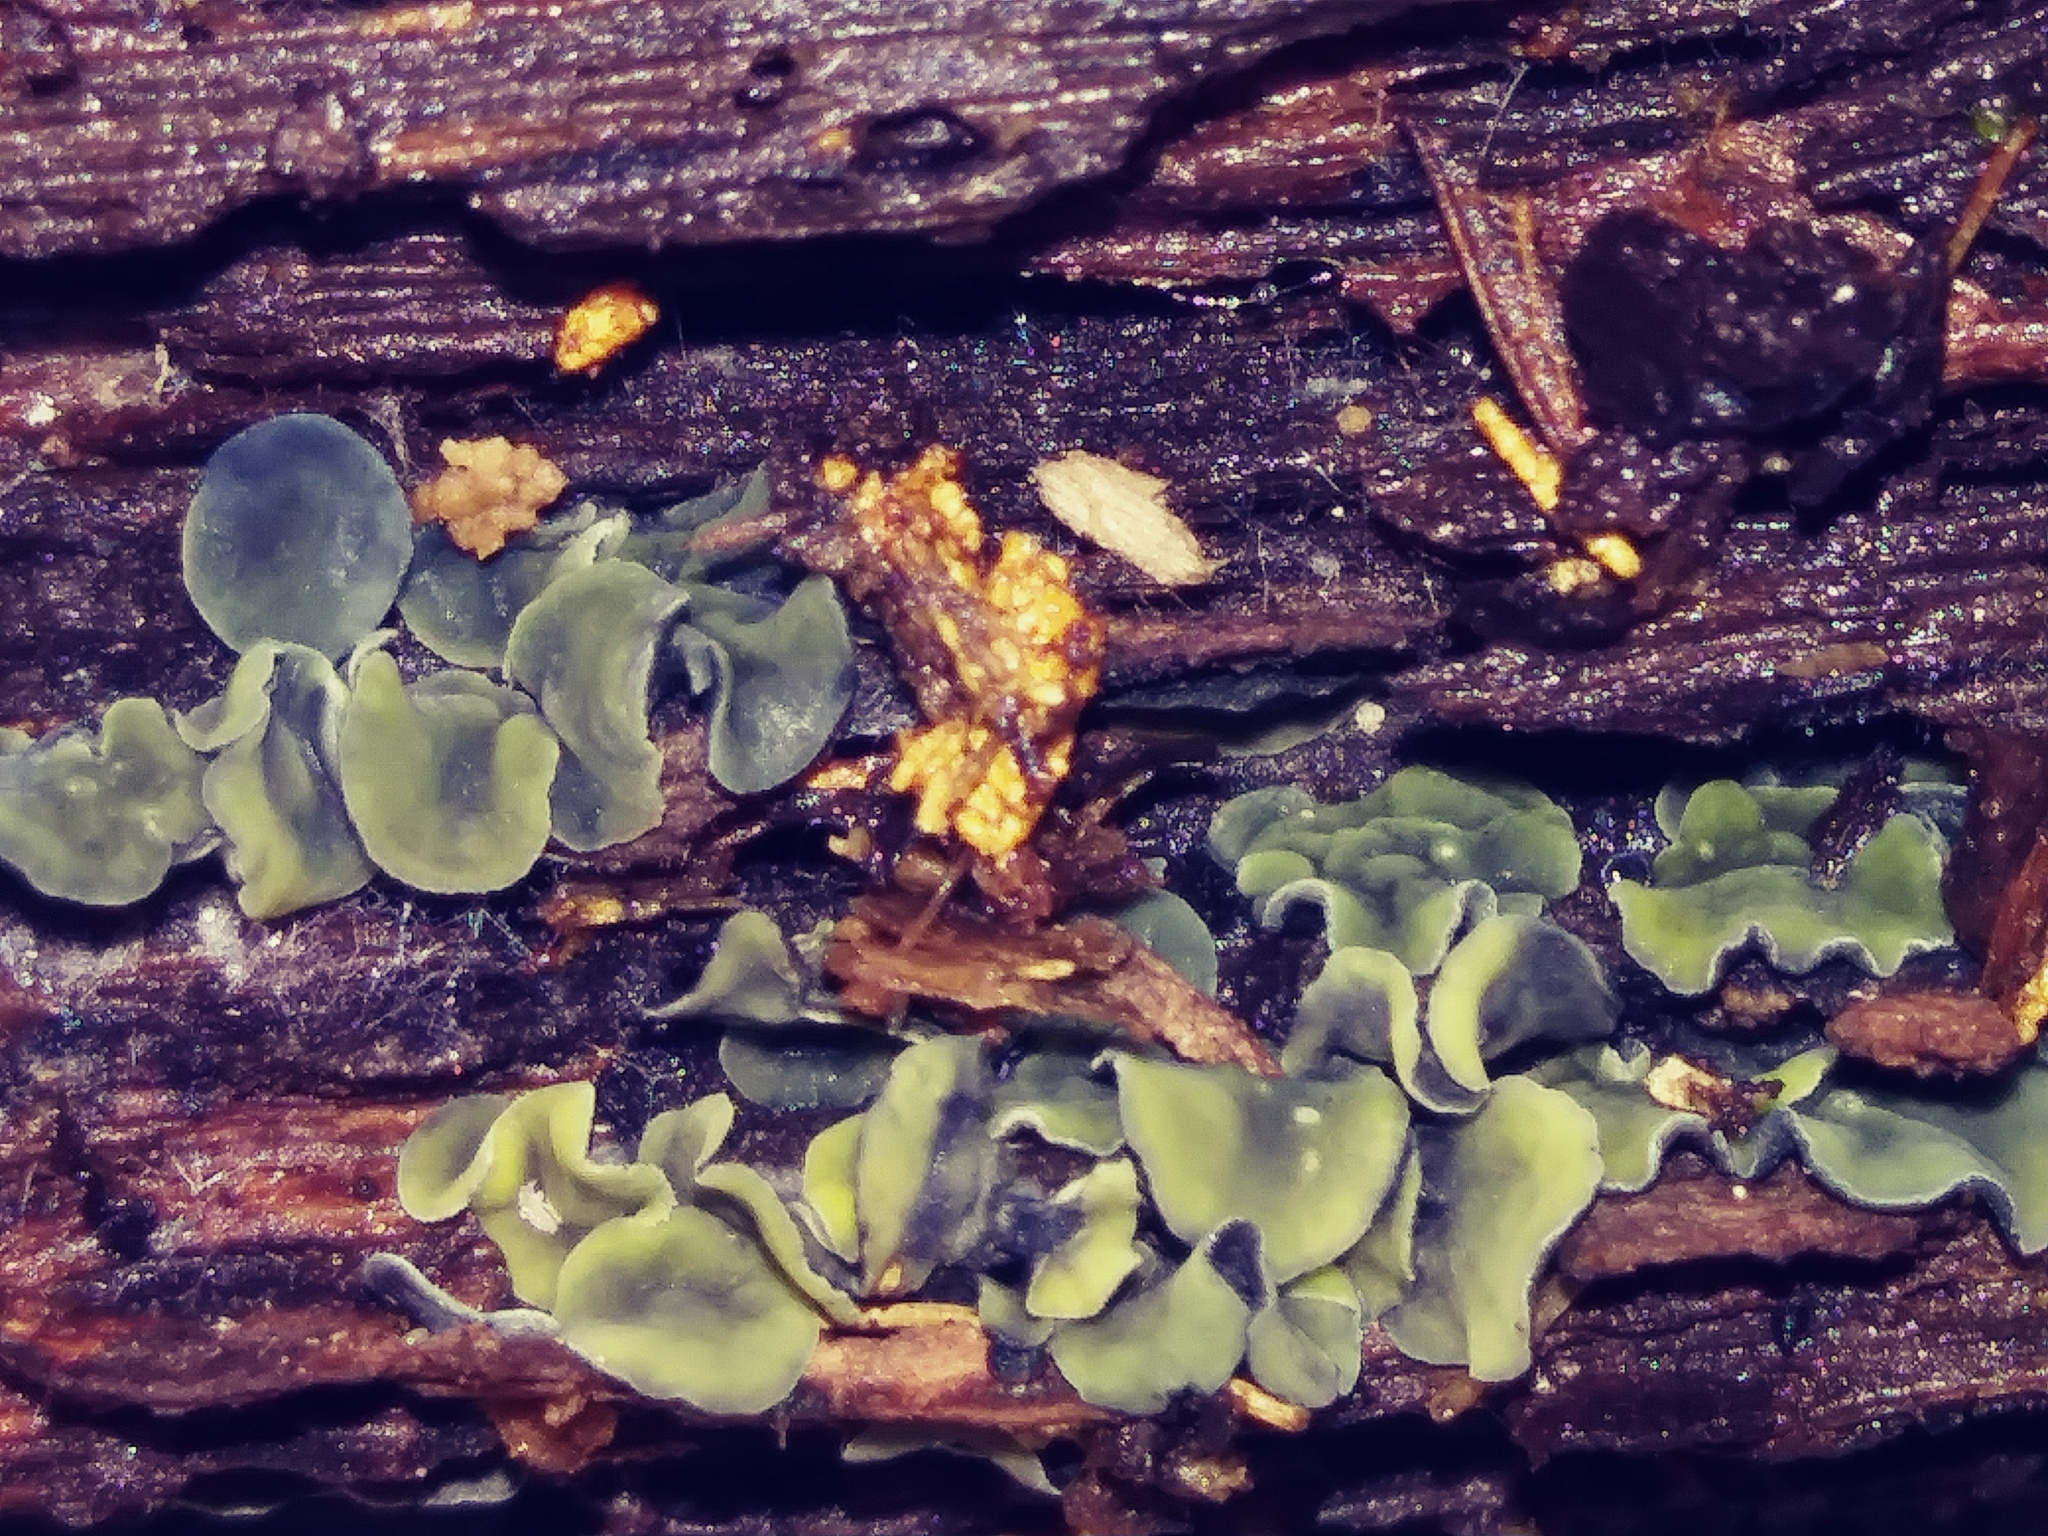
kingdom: Fungi
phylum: Ascomycota
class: Leotiomycetes
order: Helotiales
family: Chlorospleniaceae
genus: Chlorosplenium
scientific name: Chlorosplenium chlora
